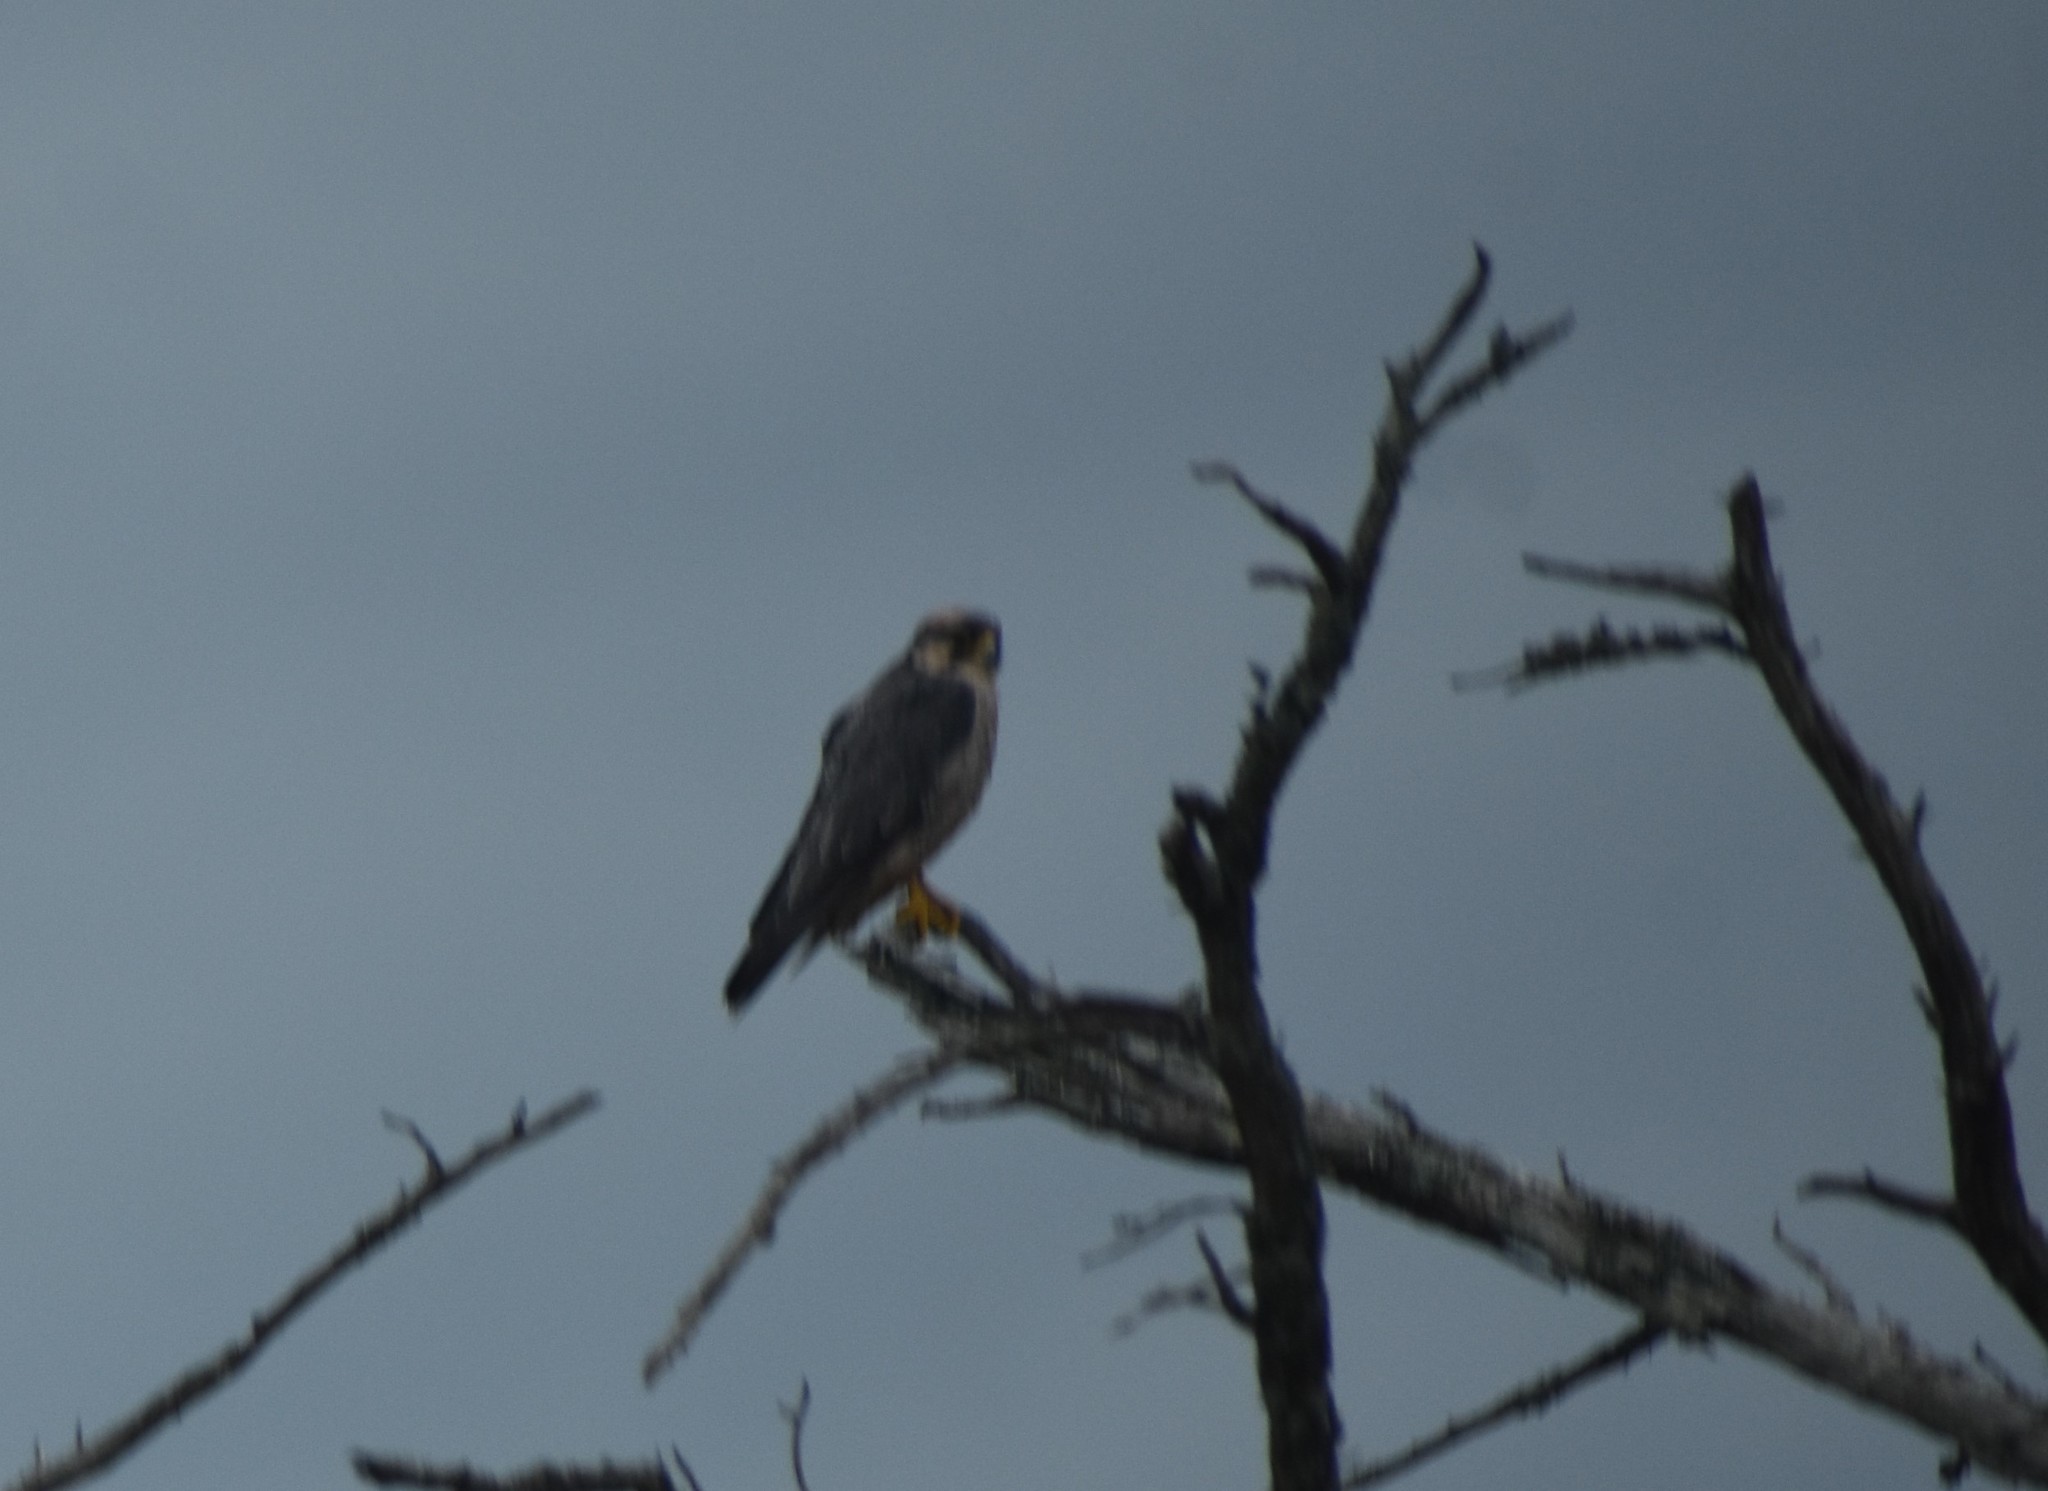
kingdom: Animalia
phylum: Chordata
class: Aves
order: Falconiformes
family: Falconidae
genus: Falco
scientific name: Falco biarmicus
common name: Lanner falcon
